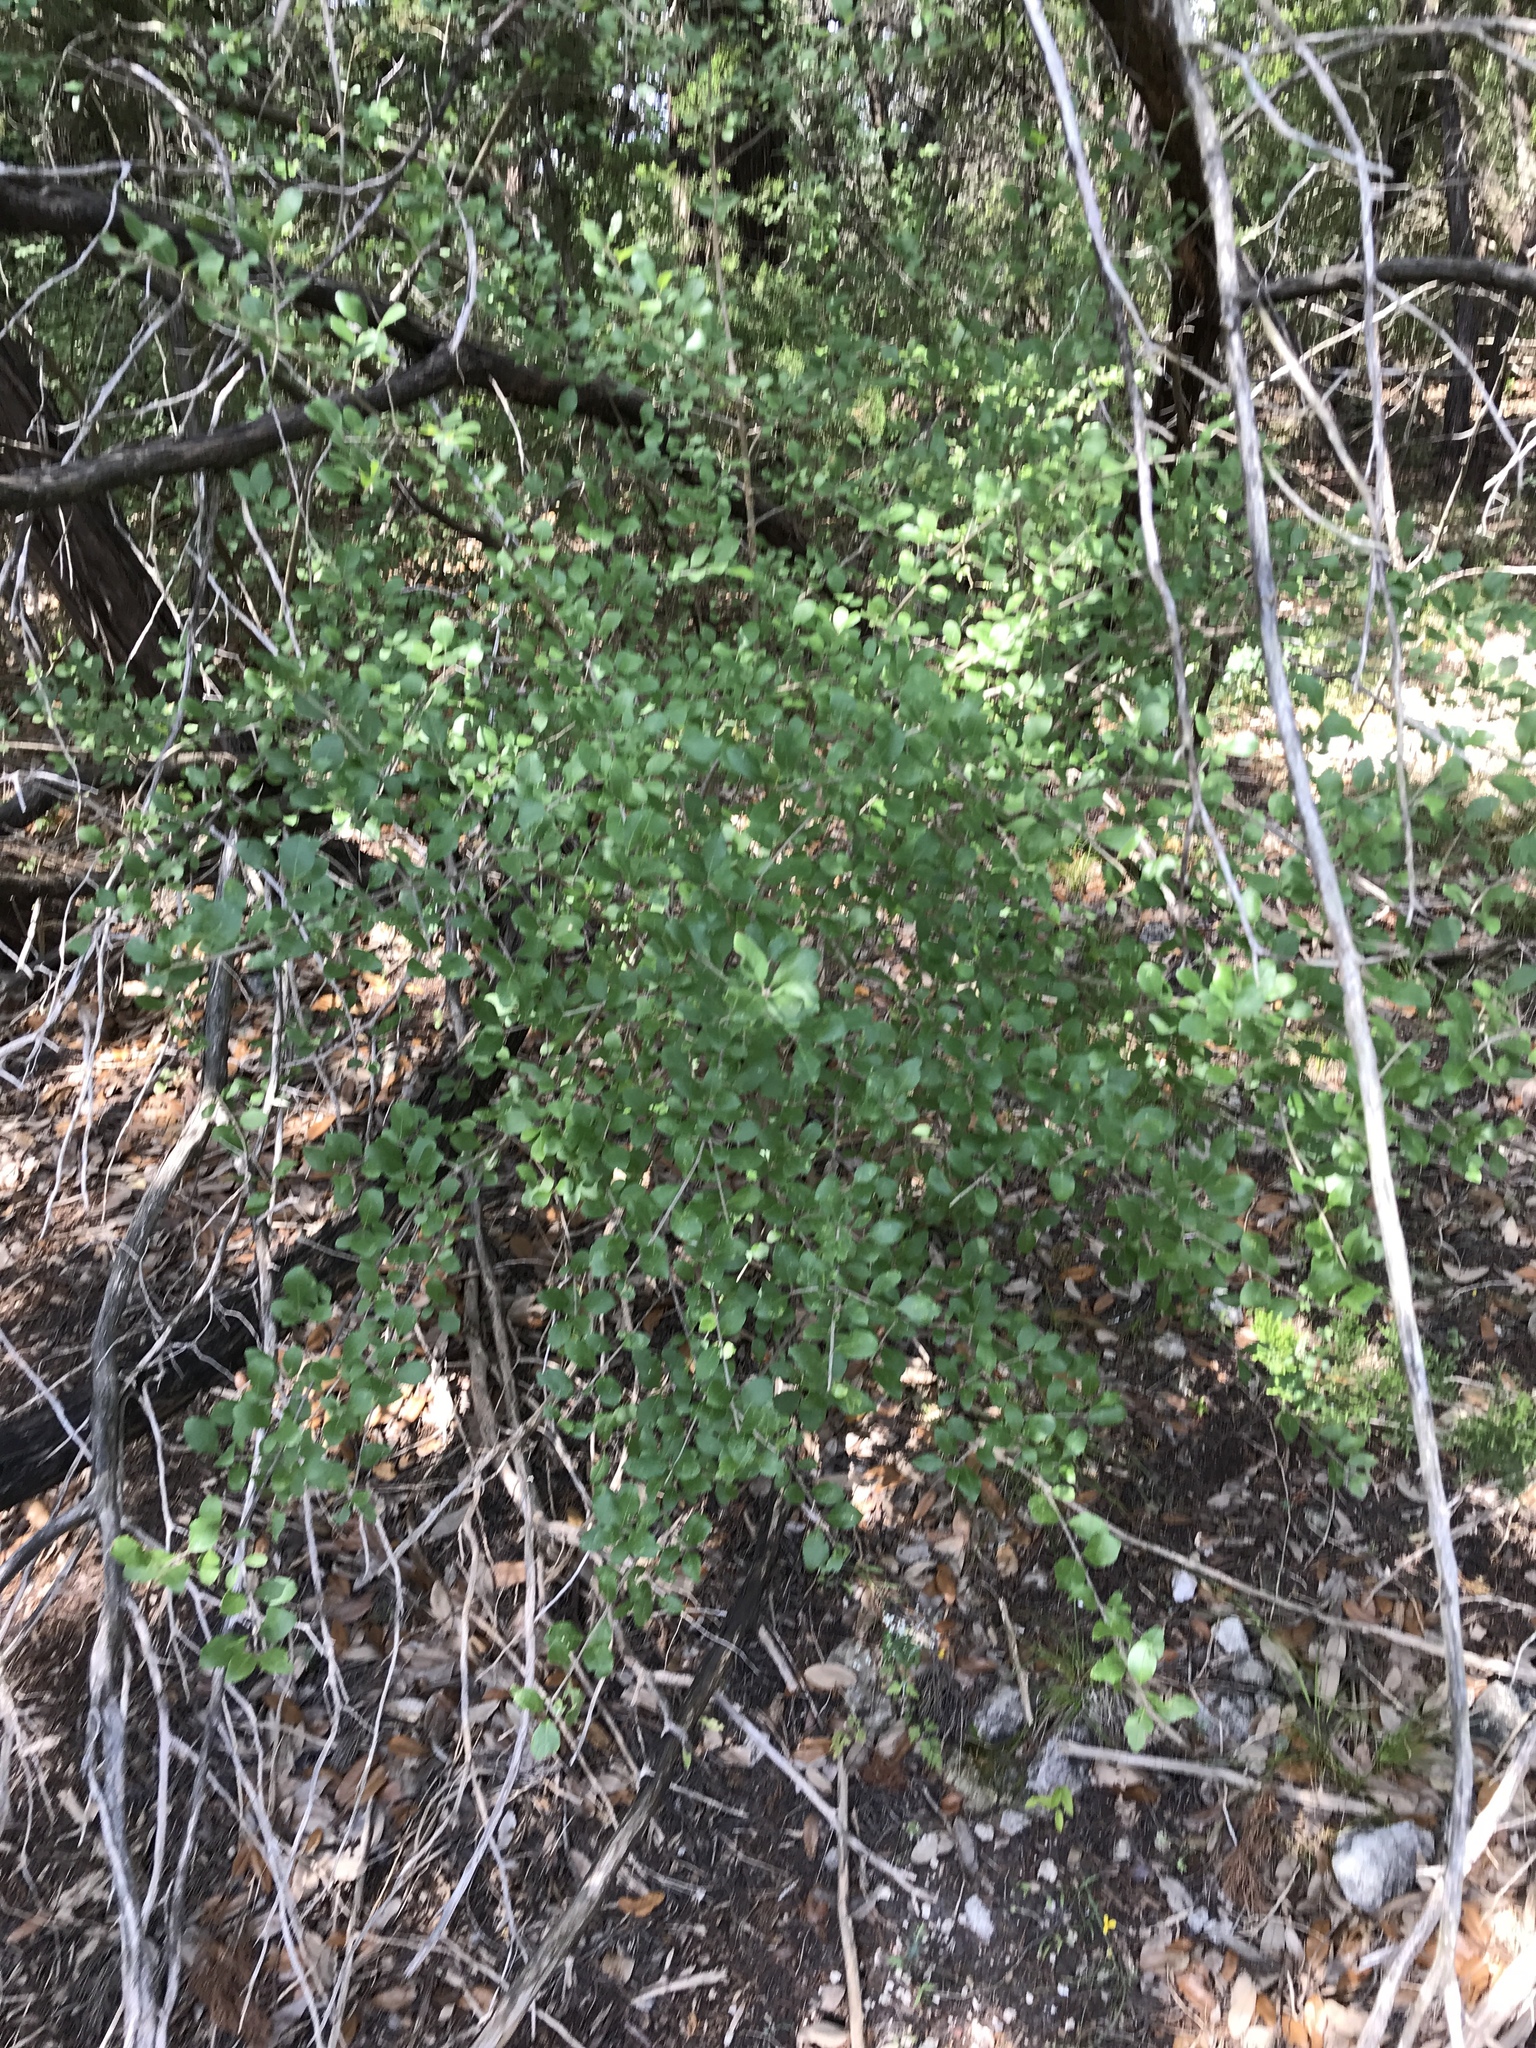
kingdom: Plantae
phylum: Tracheophyta
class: Magnoliopsida
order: Lamiales
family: Oleaceae
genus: Forestiera
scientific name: Forestiera pubescens
